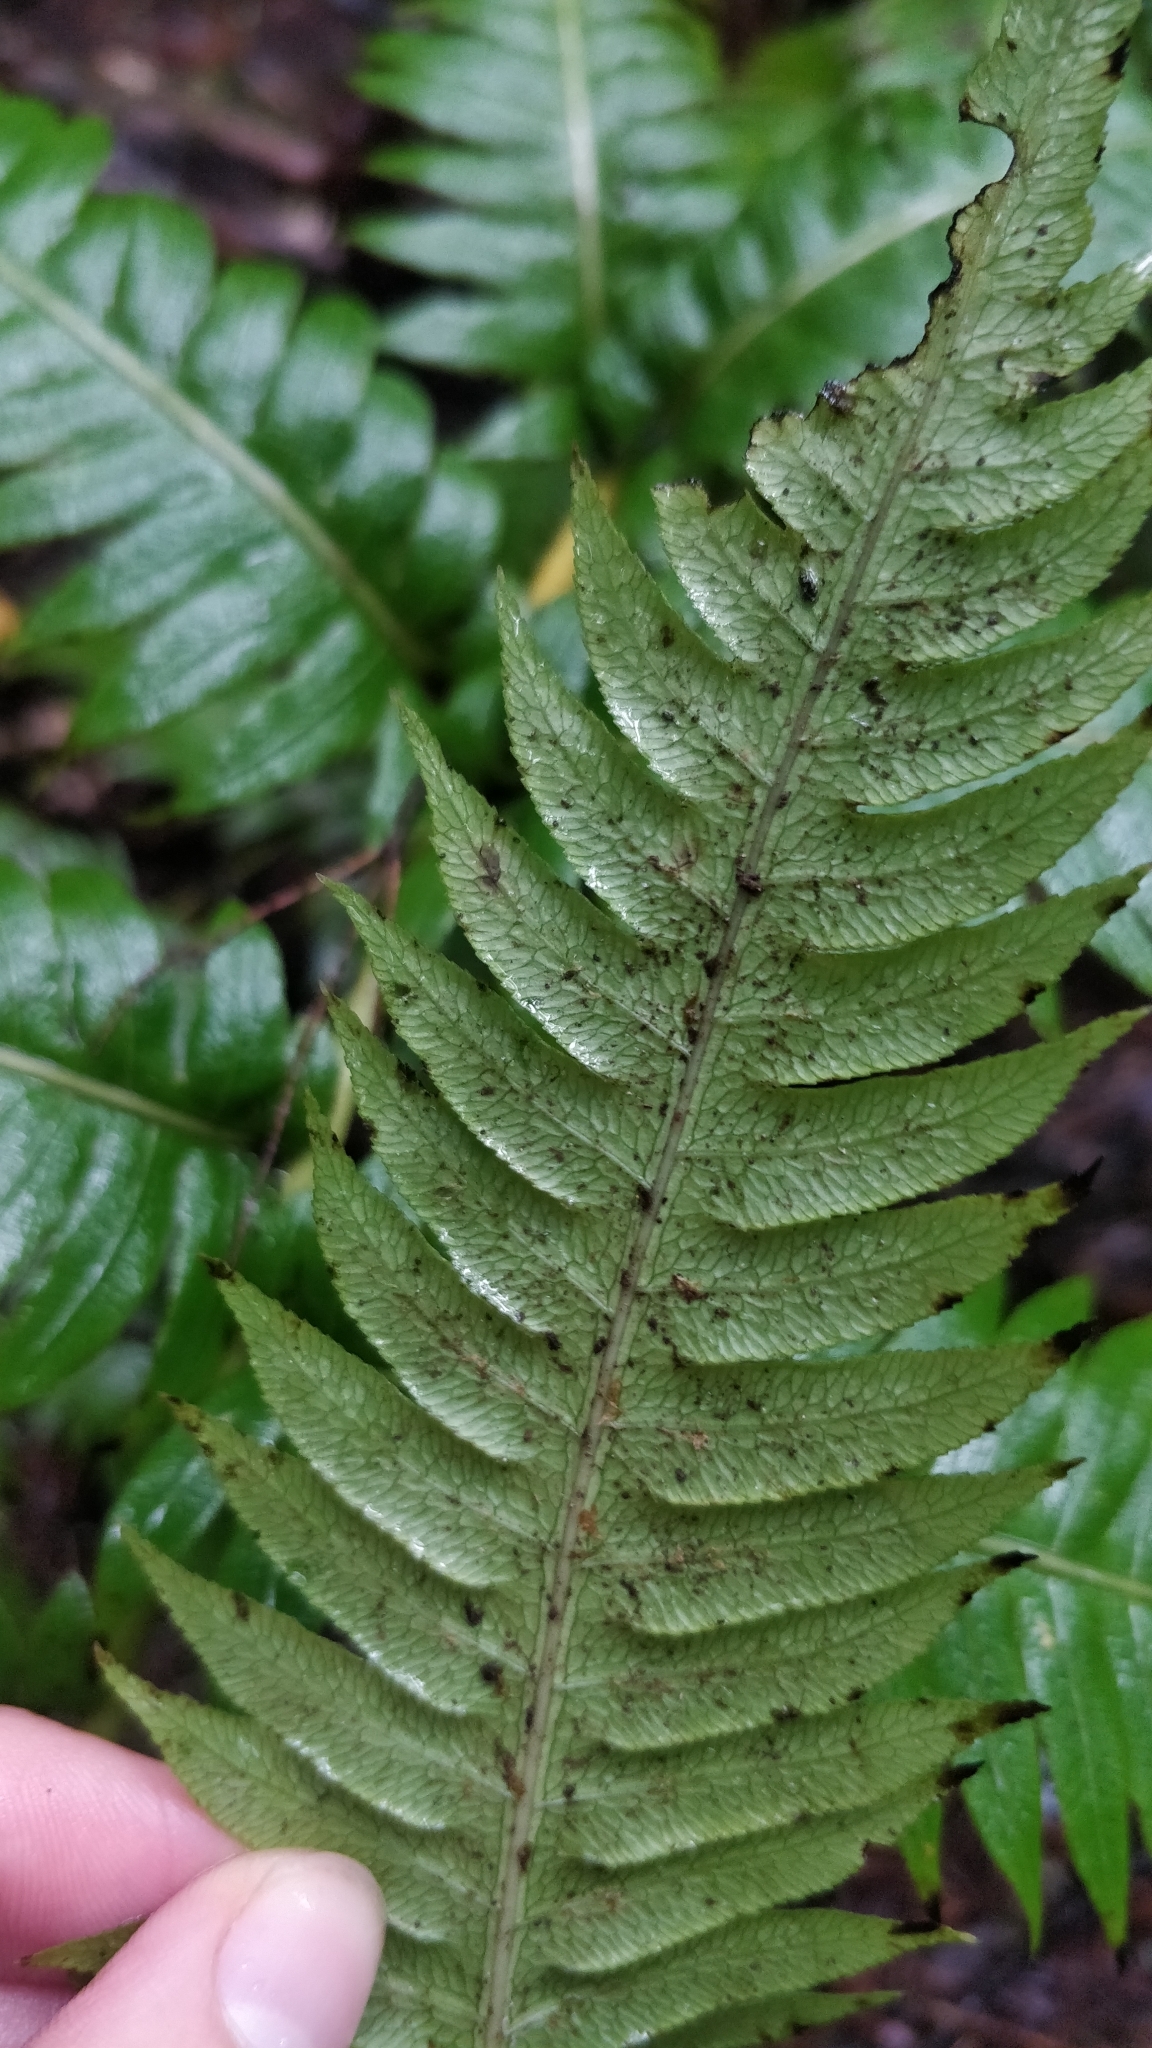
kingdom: Plantae
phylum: Tracheophyta
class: Polypodiopsida
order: Polypodiales
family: Blechnaceae
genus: Woodwardia
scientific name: Woodwardia radicans
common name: Rooting chainfern
